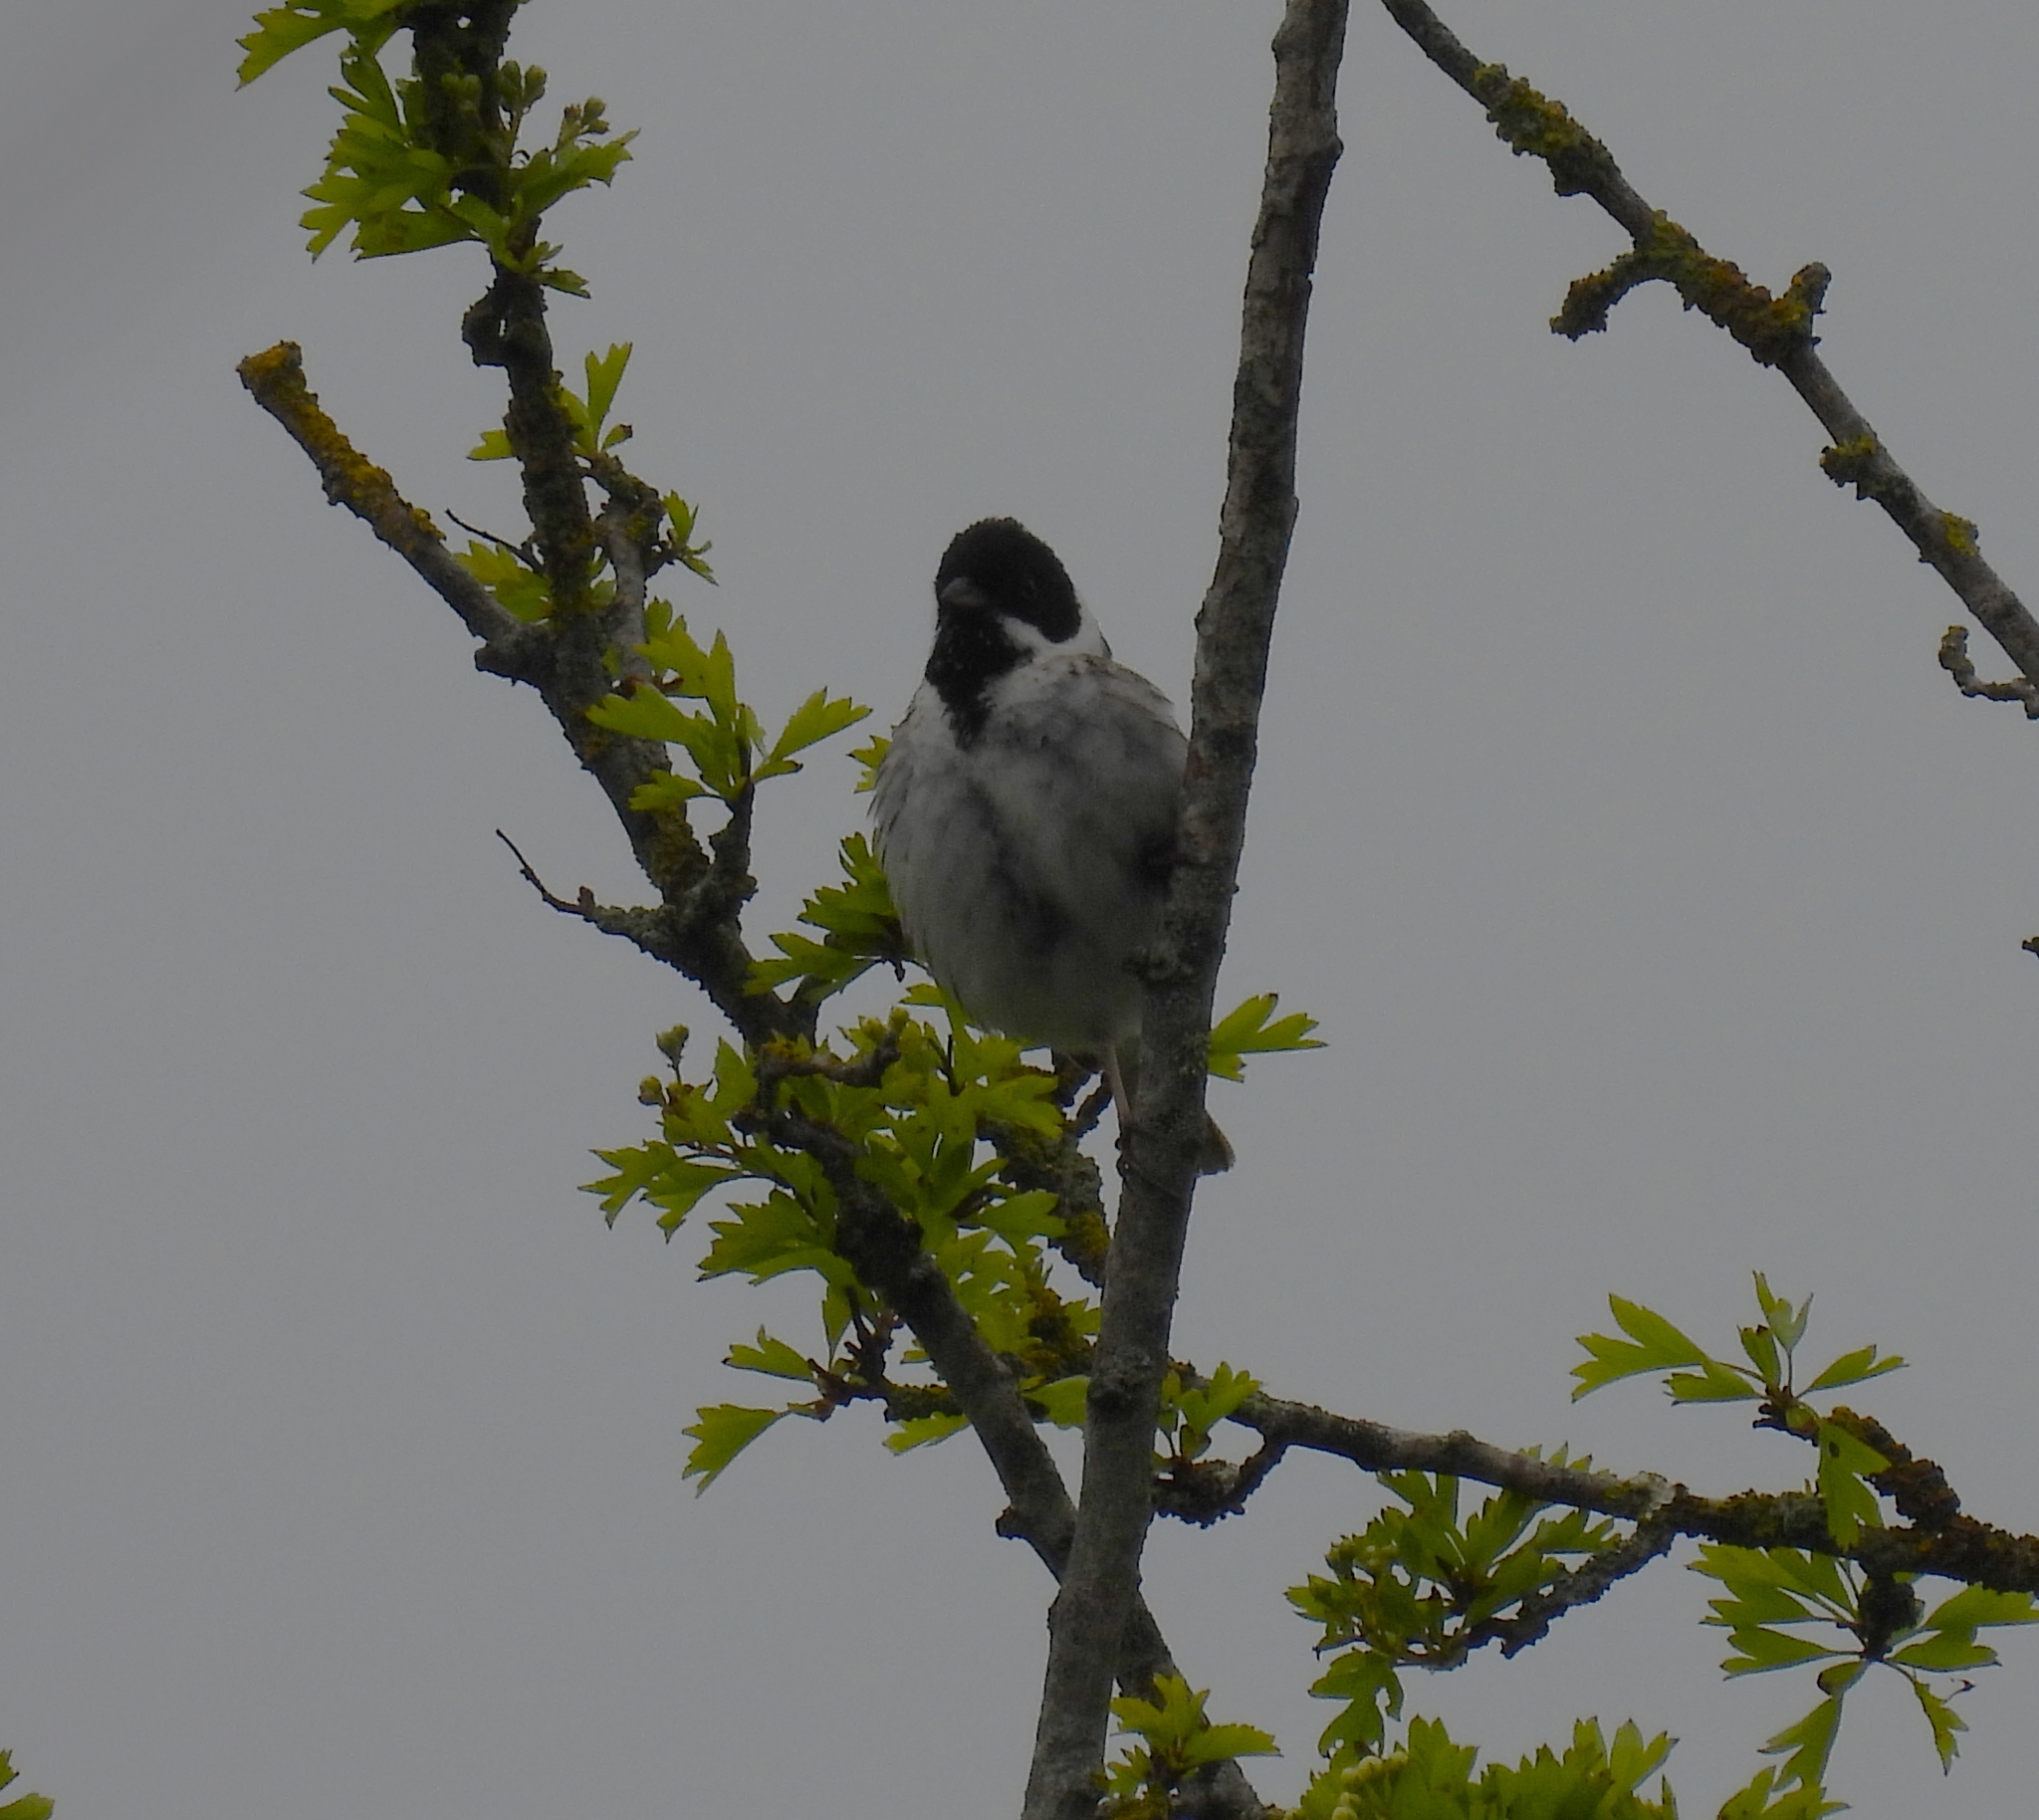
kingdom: Animalia
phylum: Chordata
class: Aves
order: Passeriformes
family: Emberizidae
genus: Emberiza
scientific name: Emberiza schoeniclus
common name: Reed bunting
